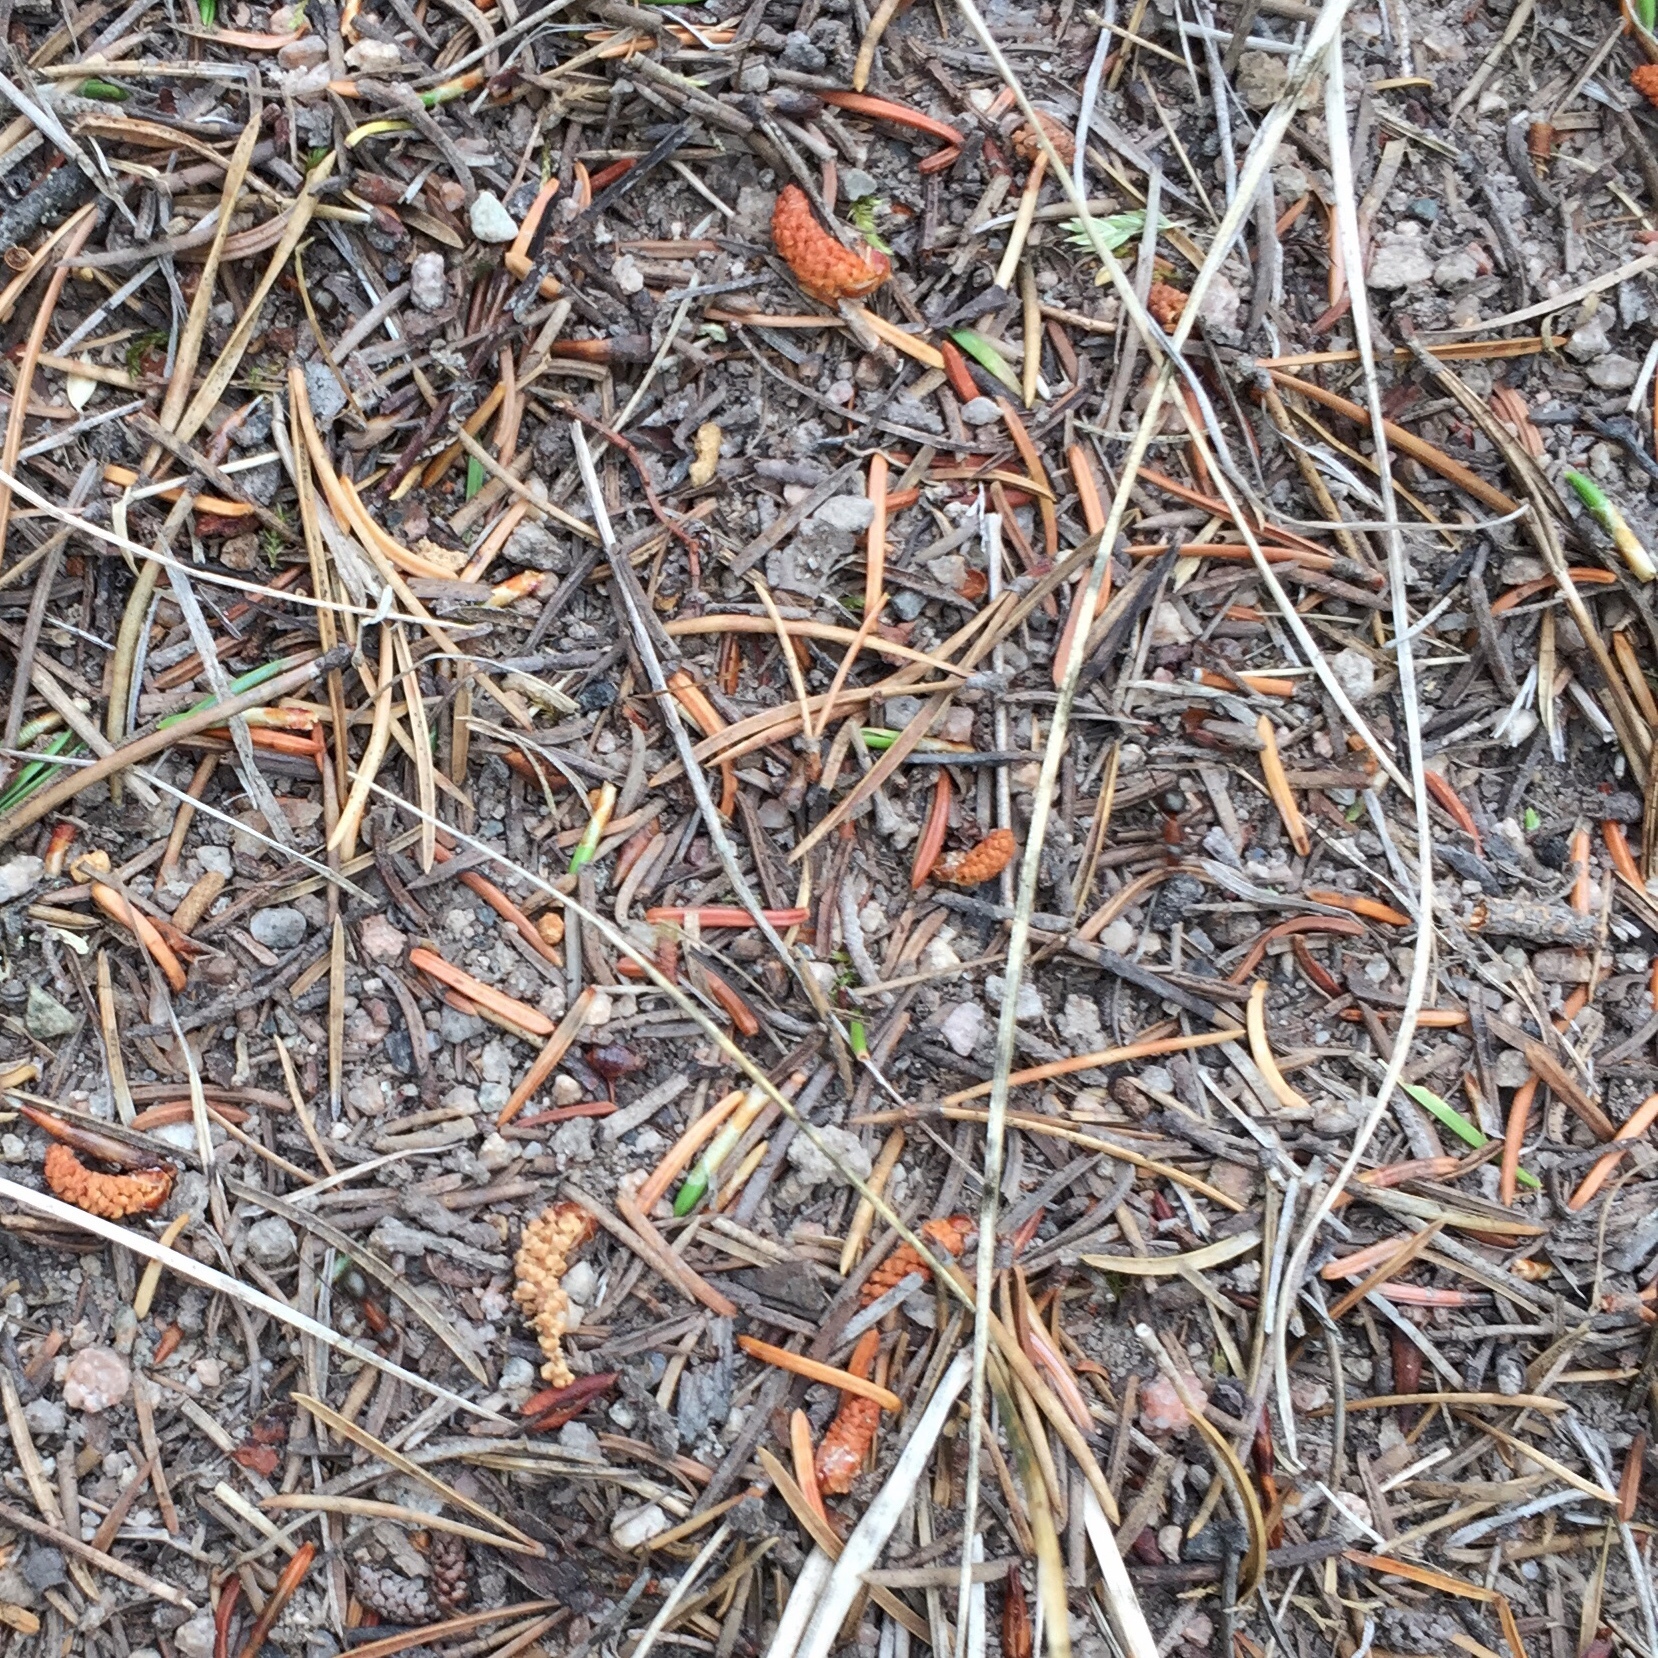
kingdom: Animalia
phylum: Arthropoda
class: Insecta
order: Hymenoptera
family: Formicidae
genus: Formica
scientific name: Formica ulkei
